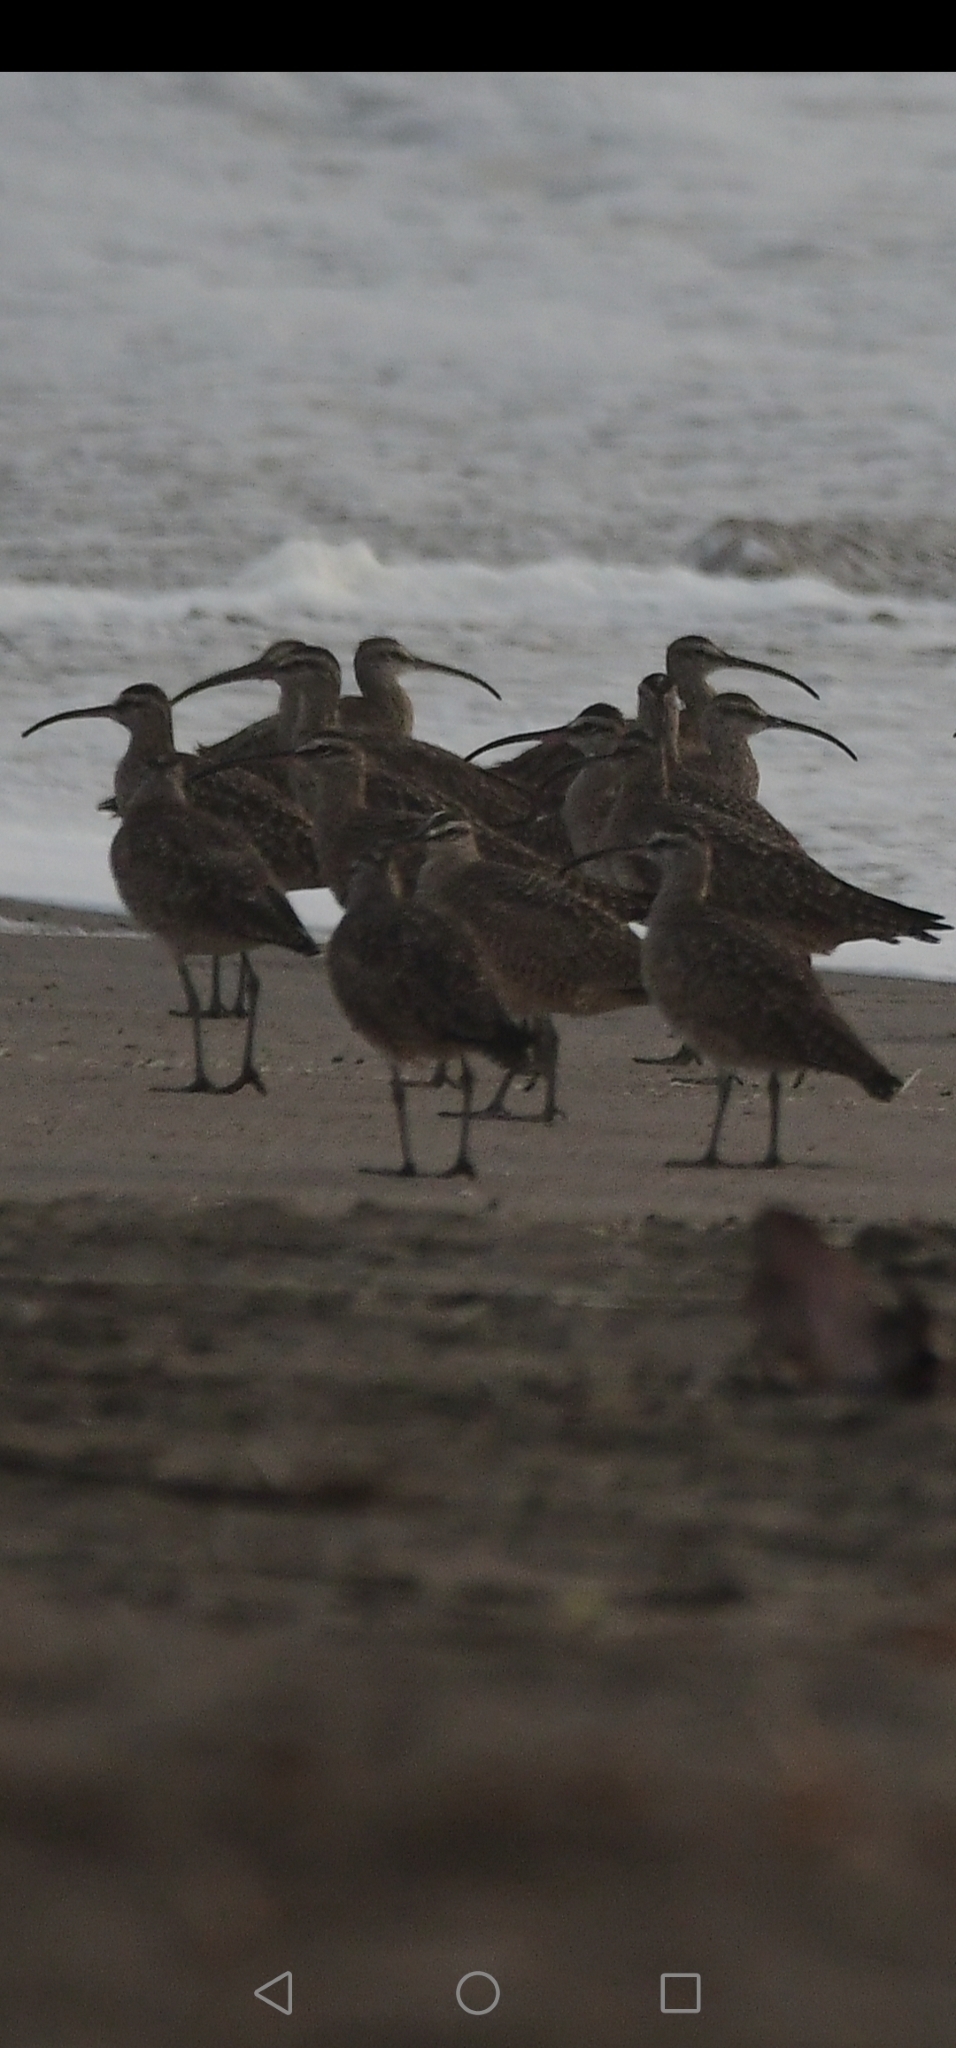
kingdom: Animalia
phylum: Chordata
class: Aves
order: Charadriiformes
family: Scolopacidae
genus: Numenius
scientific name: Numenius phaeopus
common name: Whimbrel
